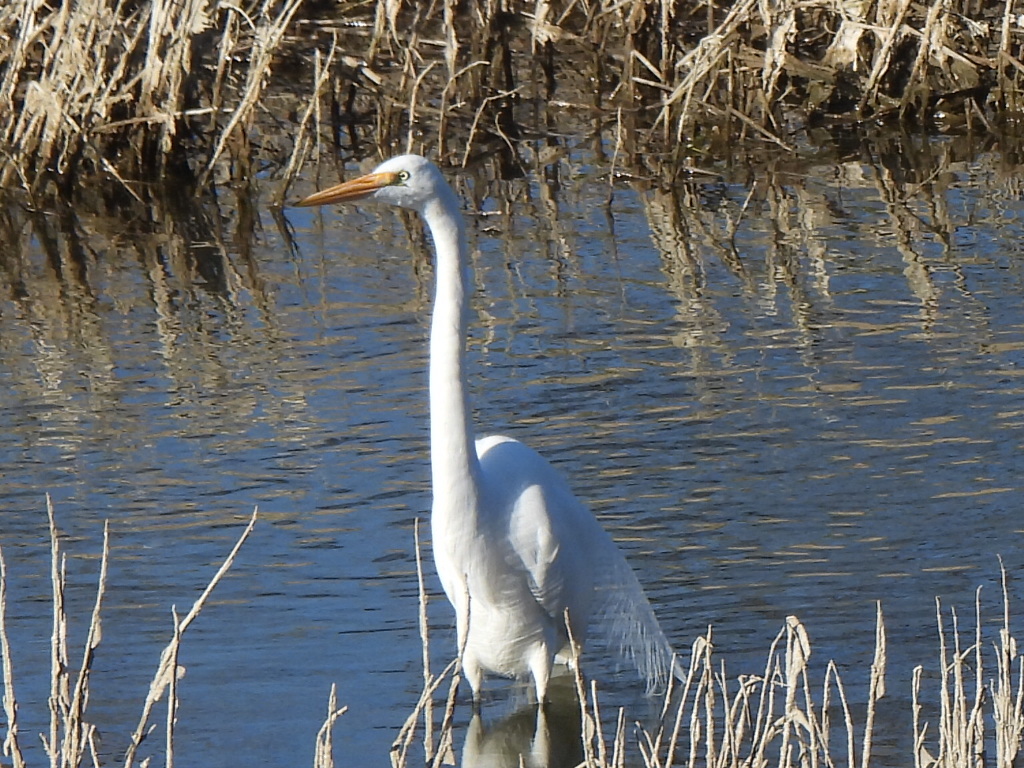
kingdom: Animalia
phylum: Chordata
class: Aves
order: Pelecaniformes
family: Ardeidae
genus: Ardea
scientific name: Ardea alba
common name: Great egret
